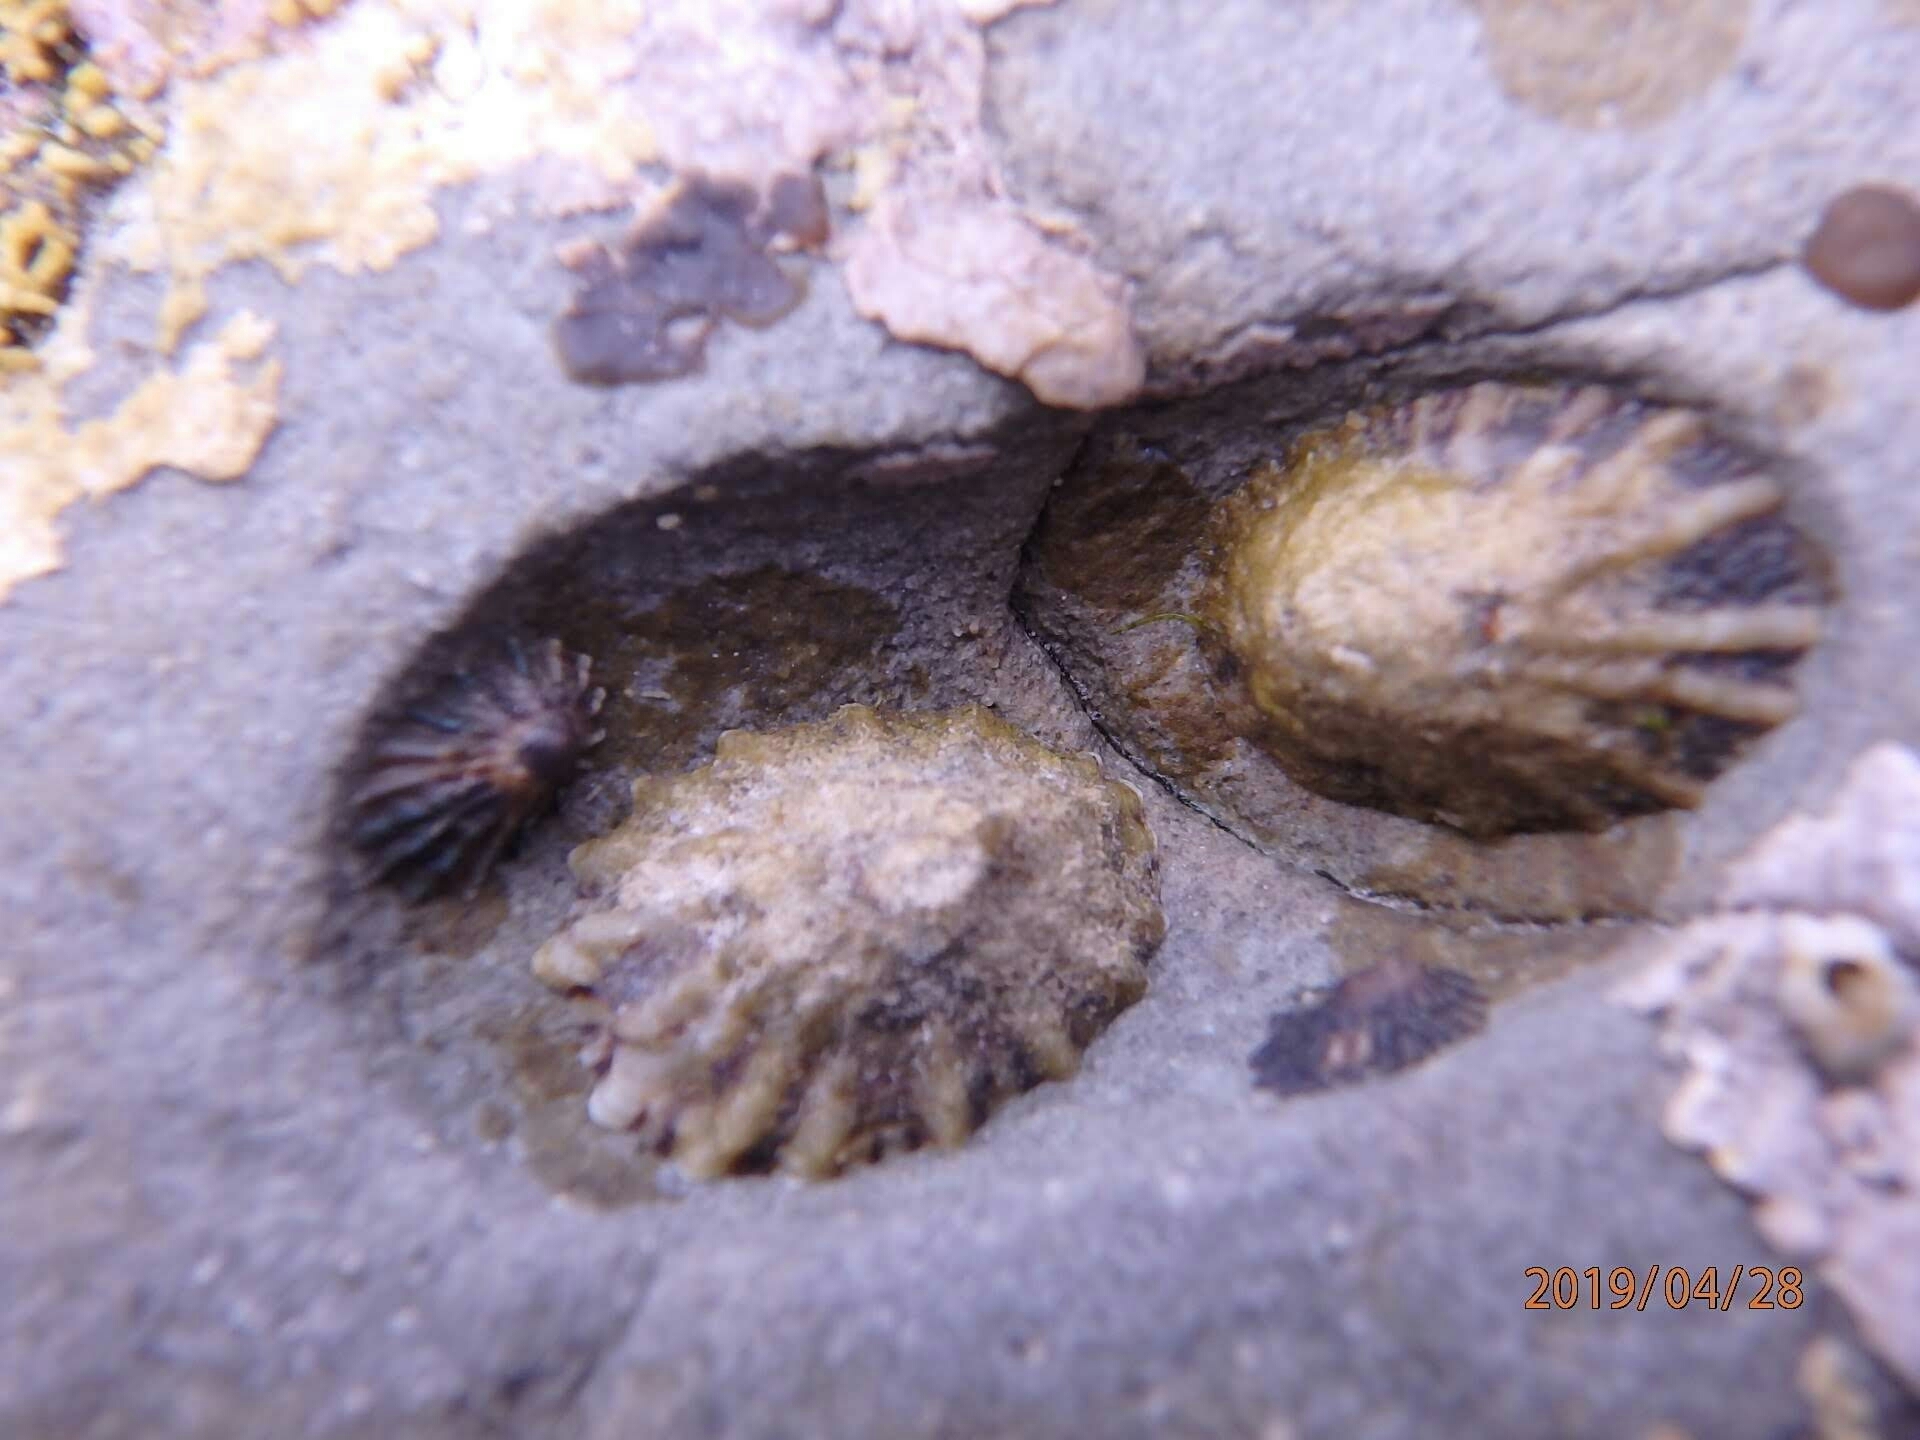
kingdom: Animalia
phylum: Mollusca
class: Gastropoda
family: Lottiidae
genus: Lottia
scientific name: Lottia scabra
